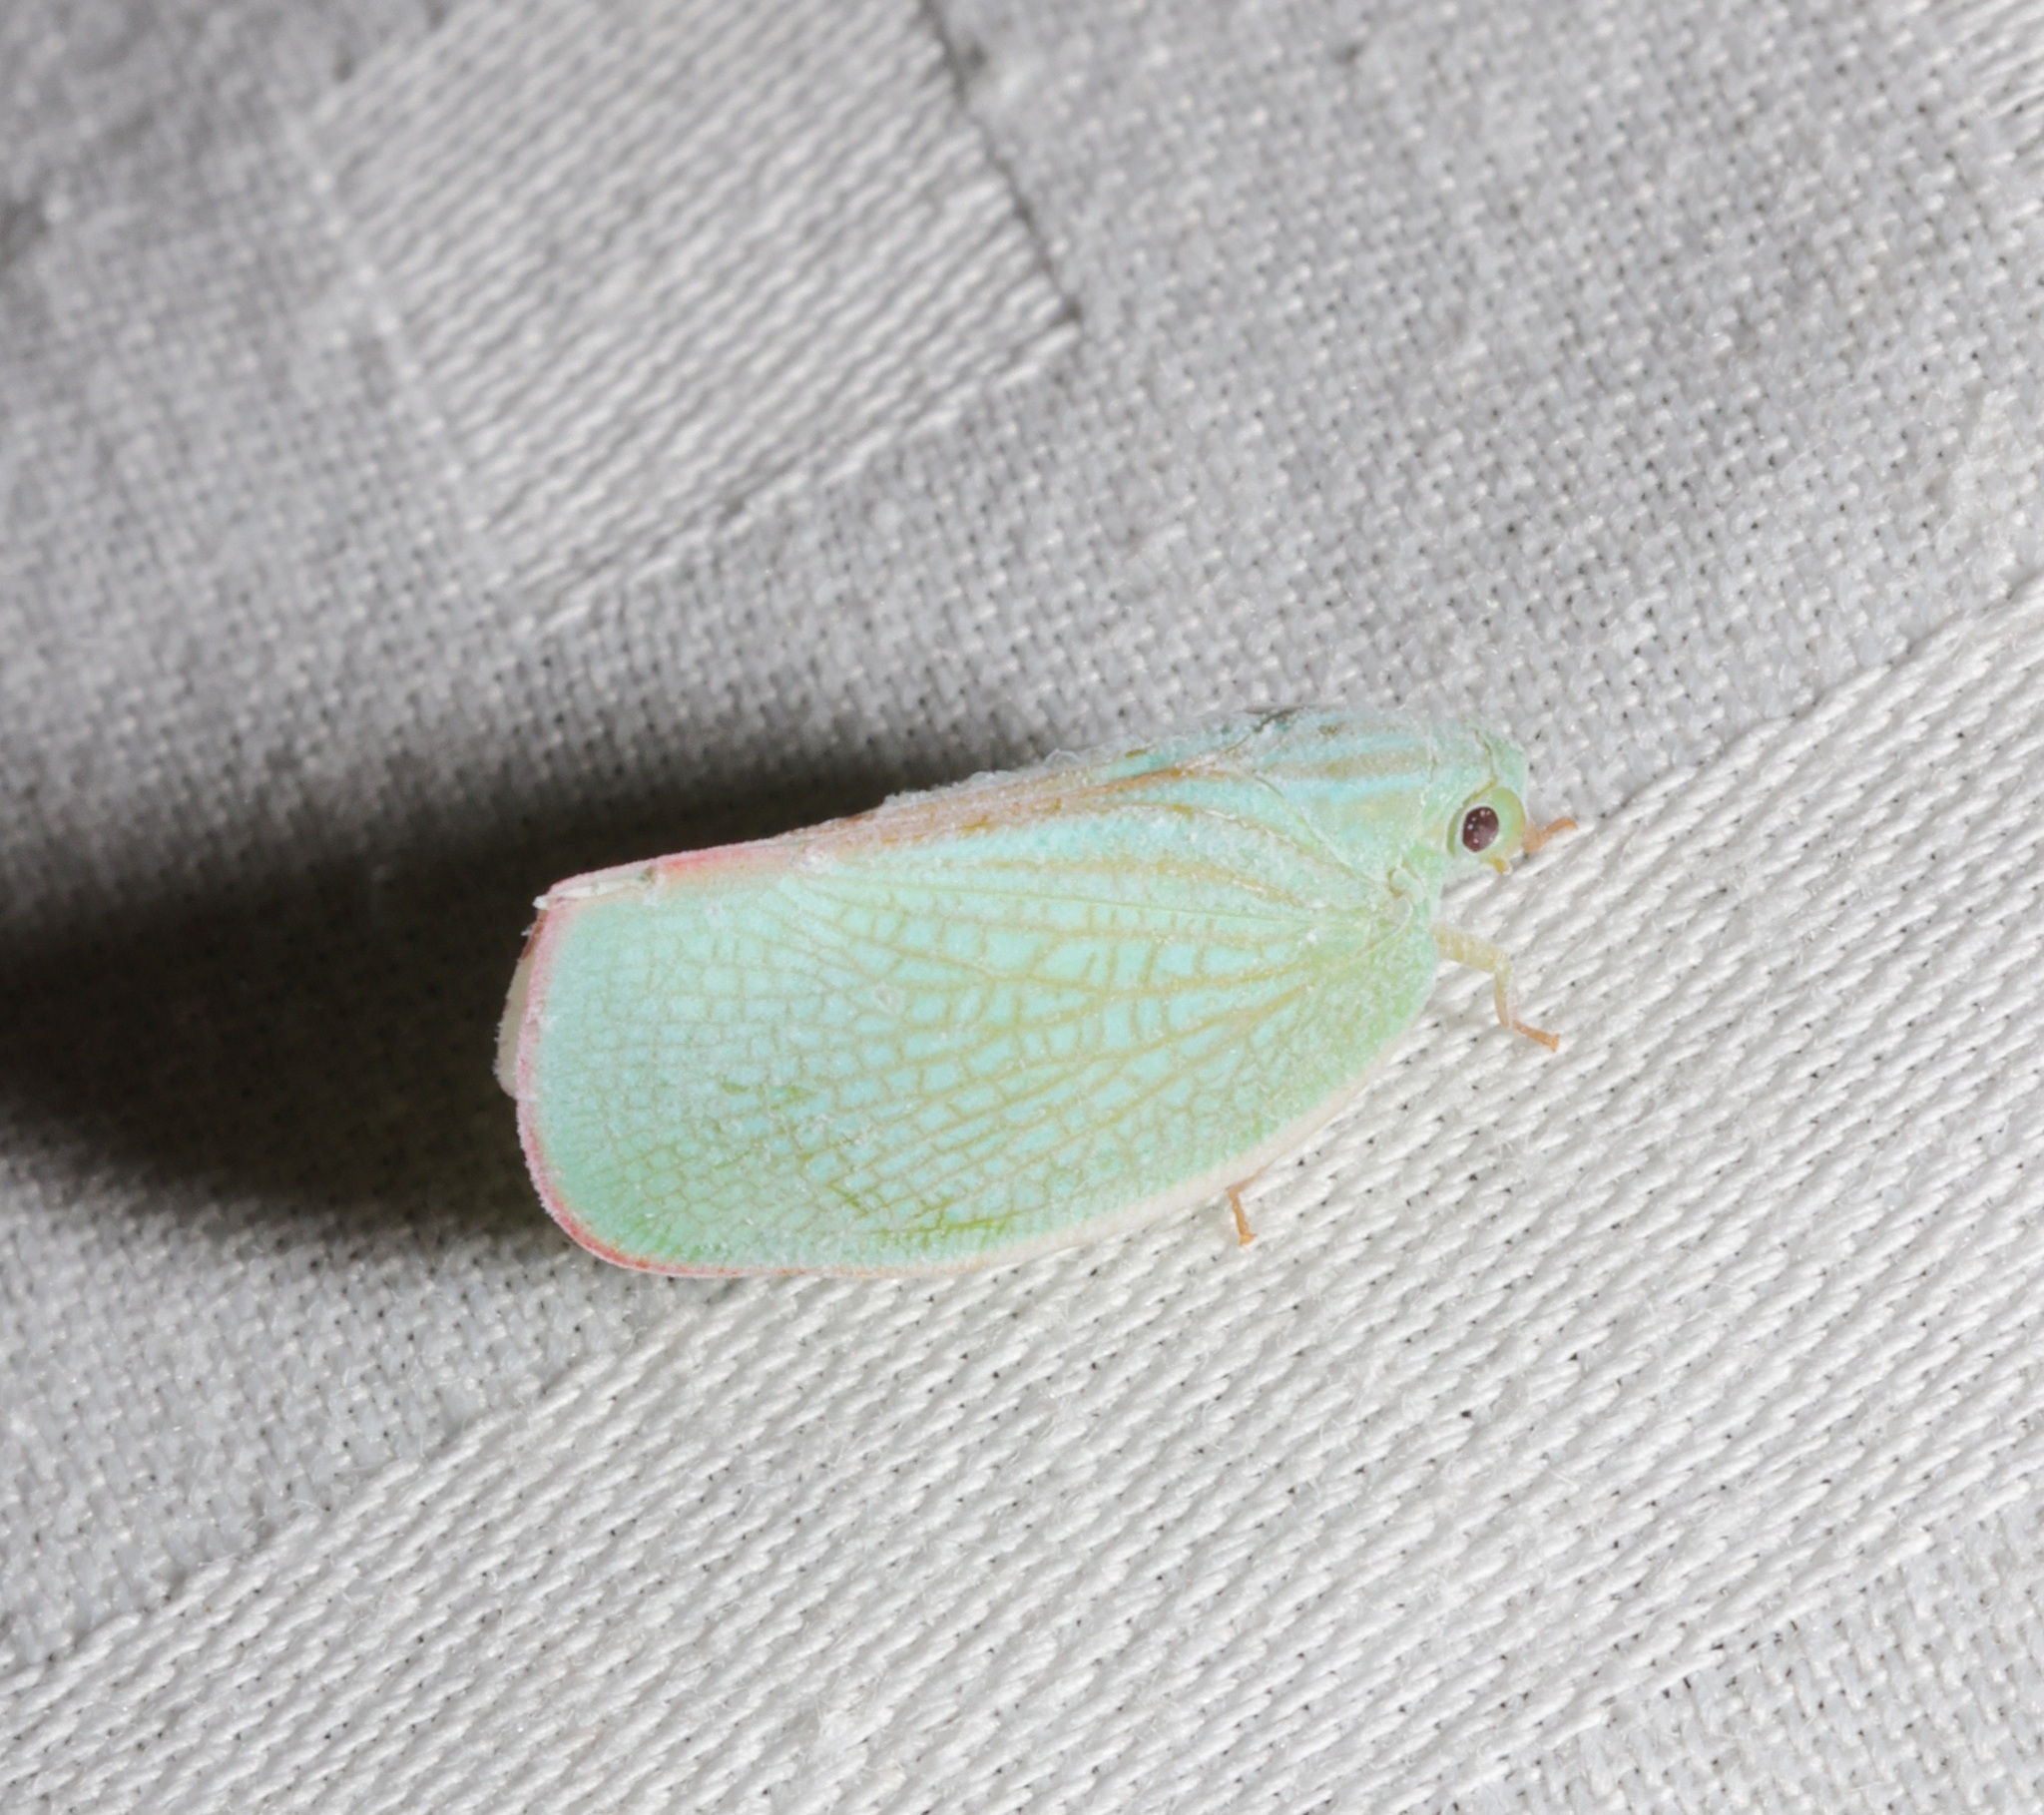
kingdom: Animalia
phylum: Arthropoda
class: Insecta
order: Hemiptera
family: Flatidae
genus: Geisha
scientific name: Geisha distinctissima
